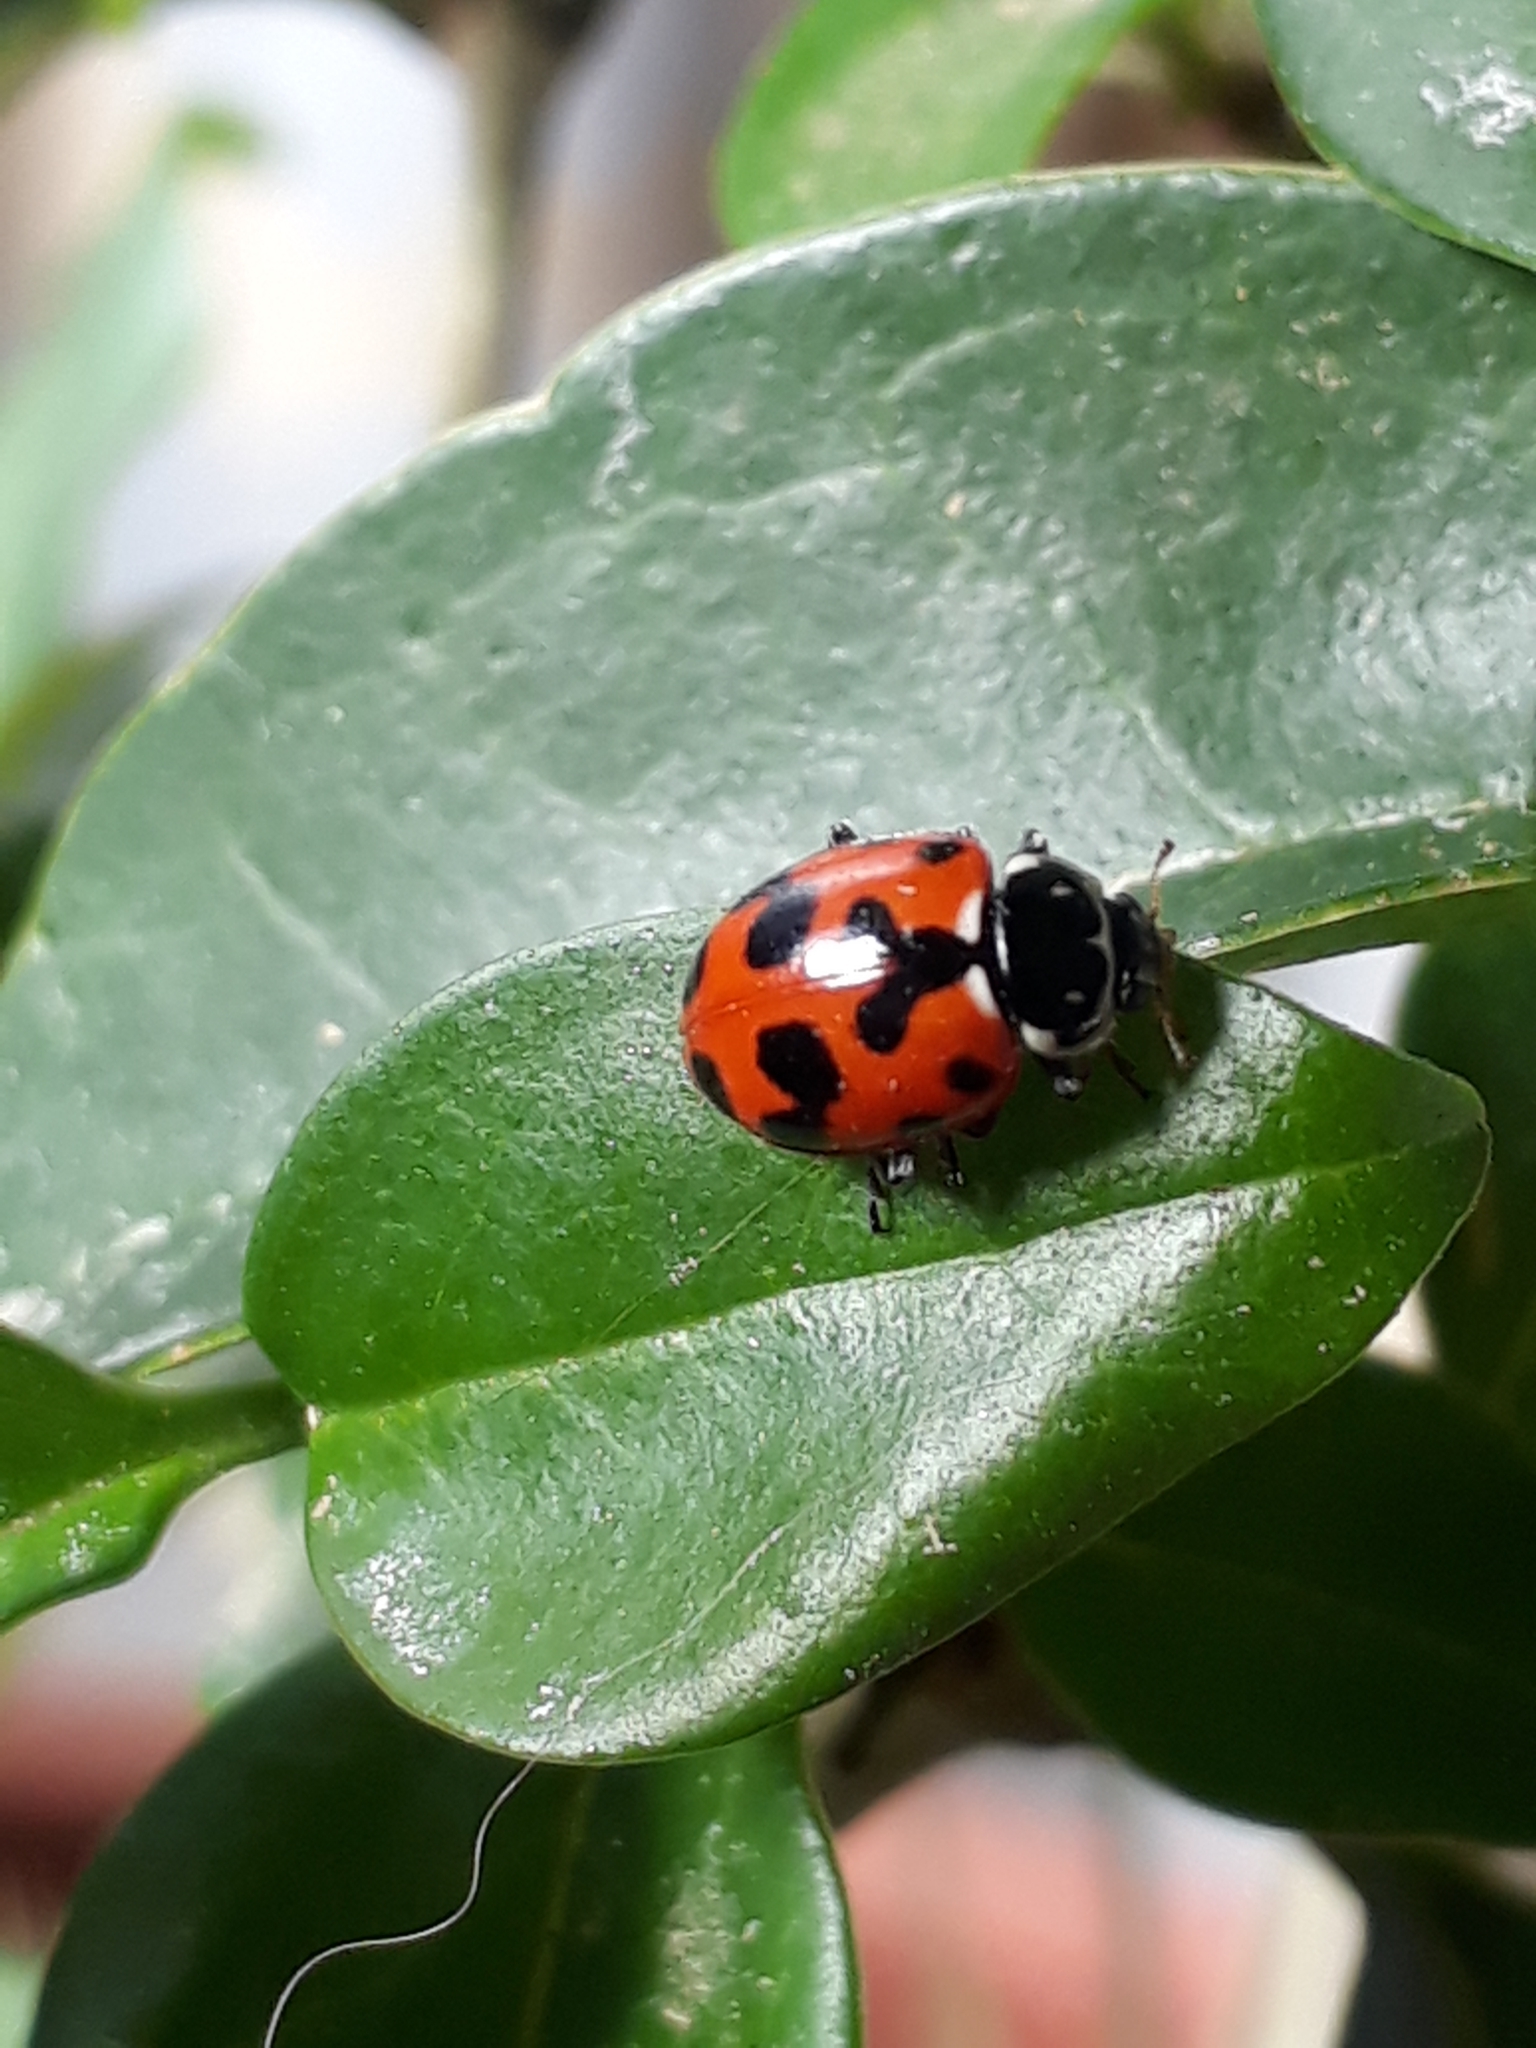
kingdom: Animalia
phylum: Arthropoda
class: Insecta
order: Coleoptera
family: Coccinellidae
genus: Hippodamia
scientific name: Hippodamia variegata
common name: Ladybird beetle
